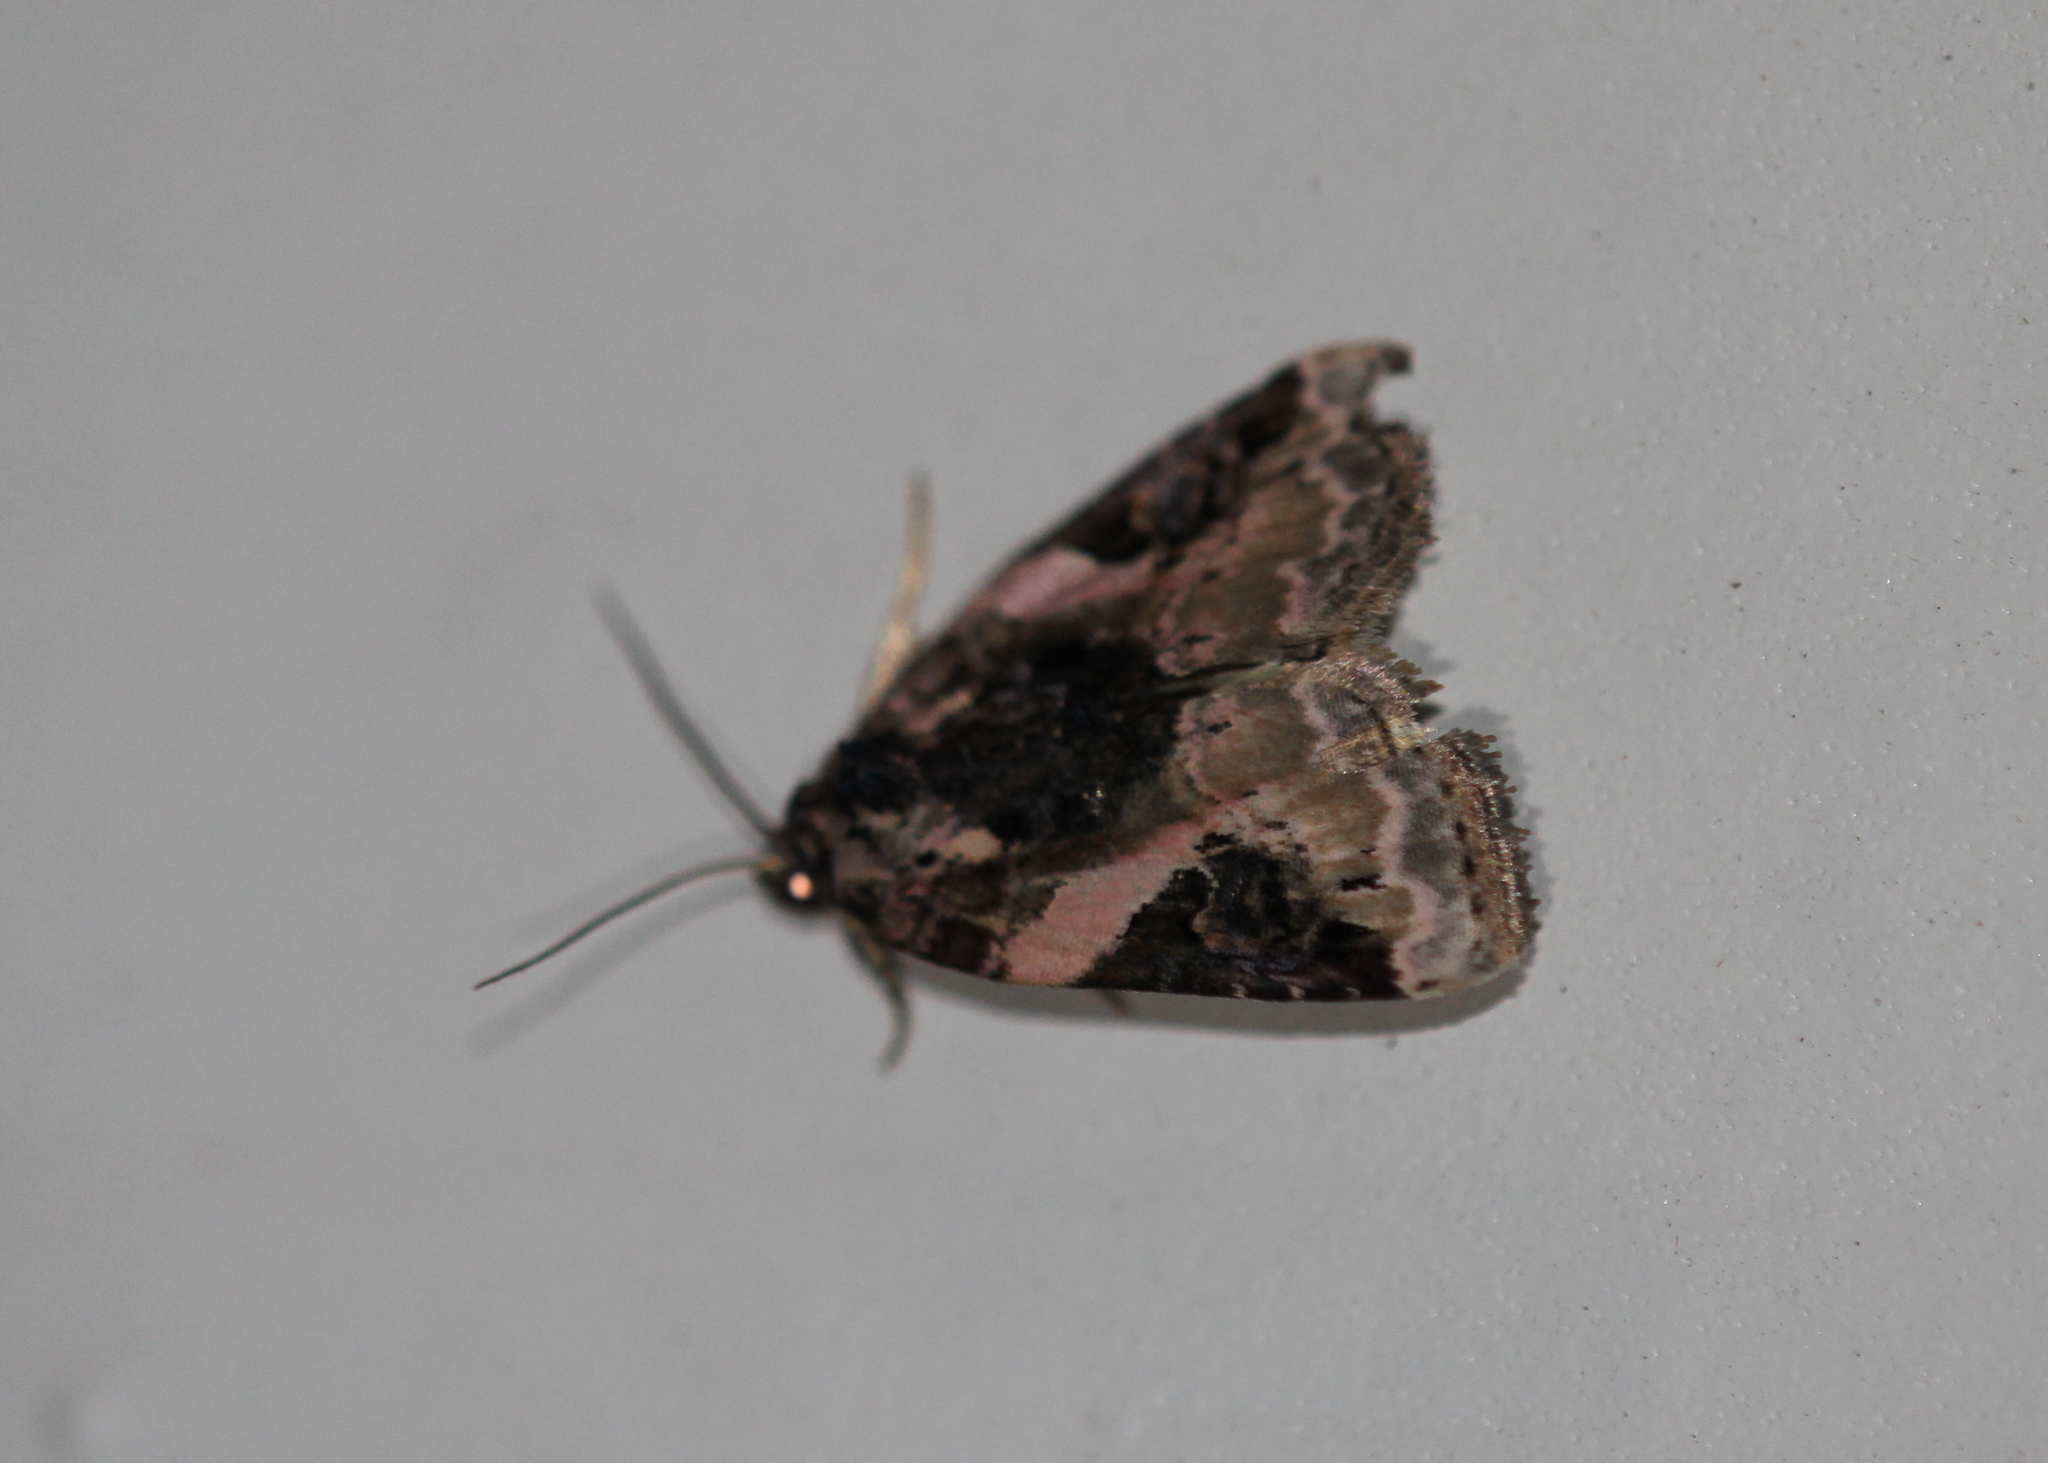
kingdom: Animalia
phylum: Arthropoda
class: Insecta
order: Lepidoptera
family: Noctuidae
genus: Pseudeustrotia
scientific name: Pseudeustrotia carneola
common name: Pink-barred lithacodia moth
